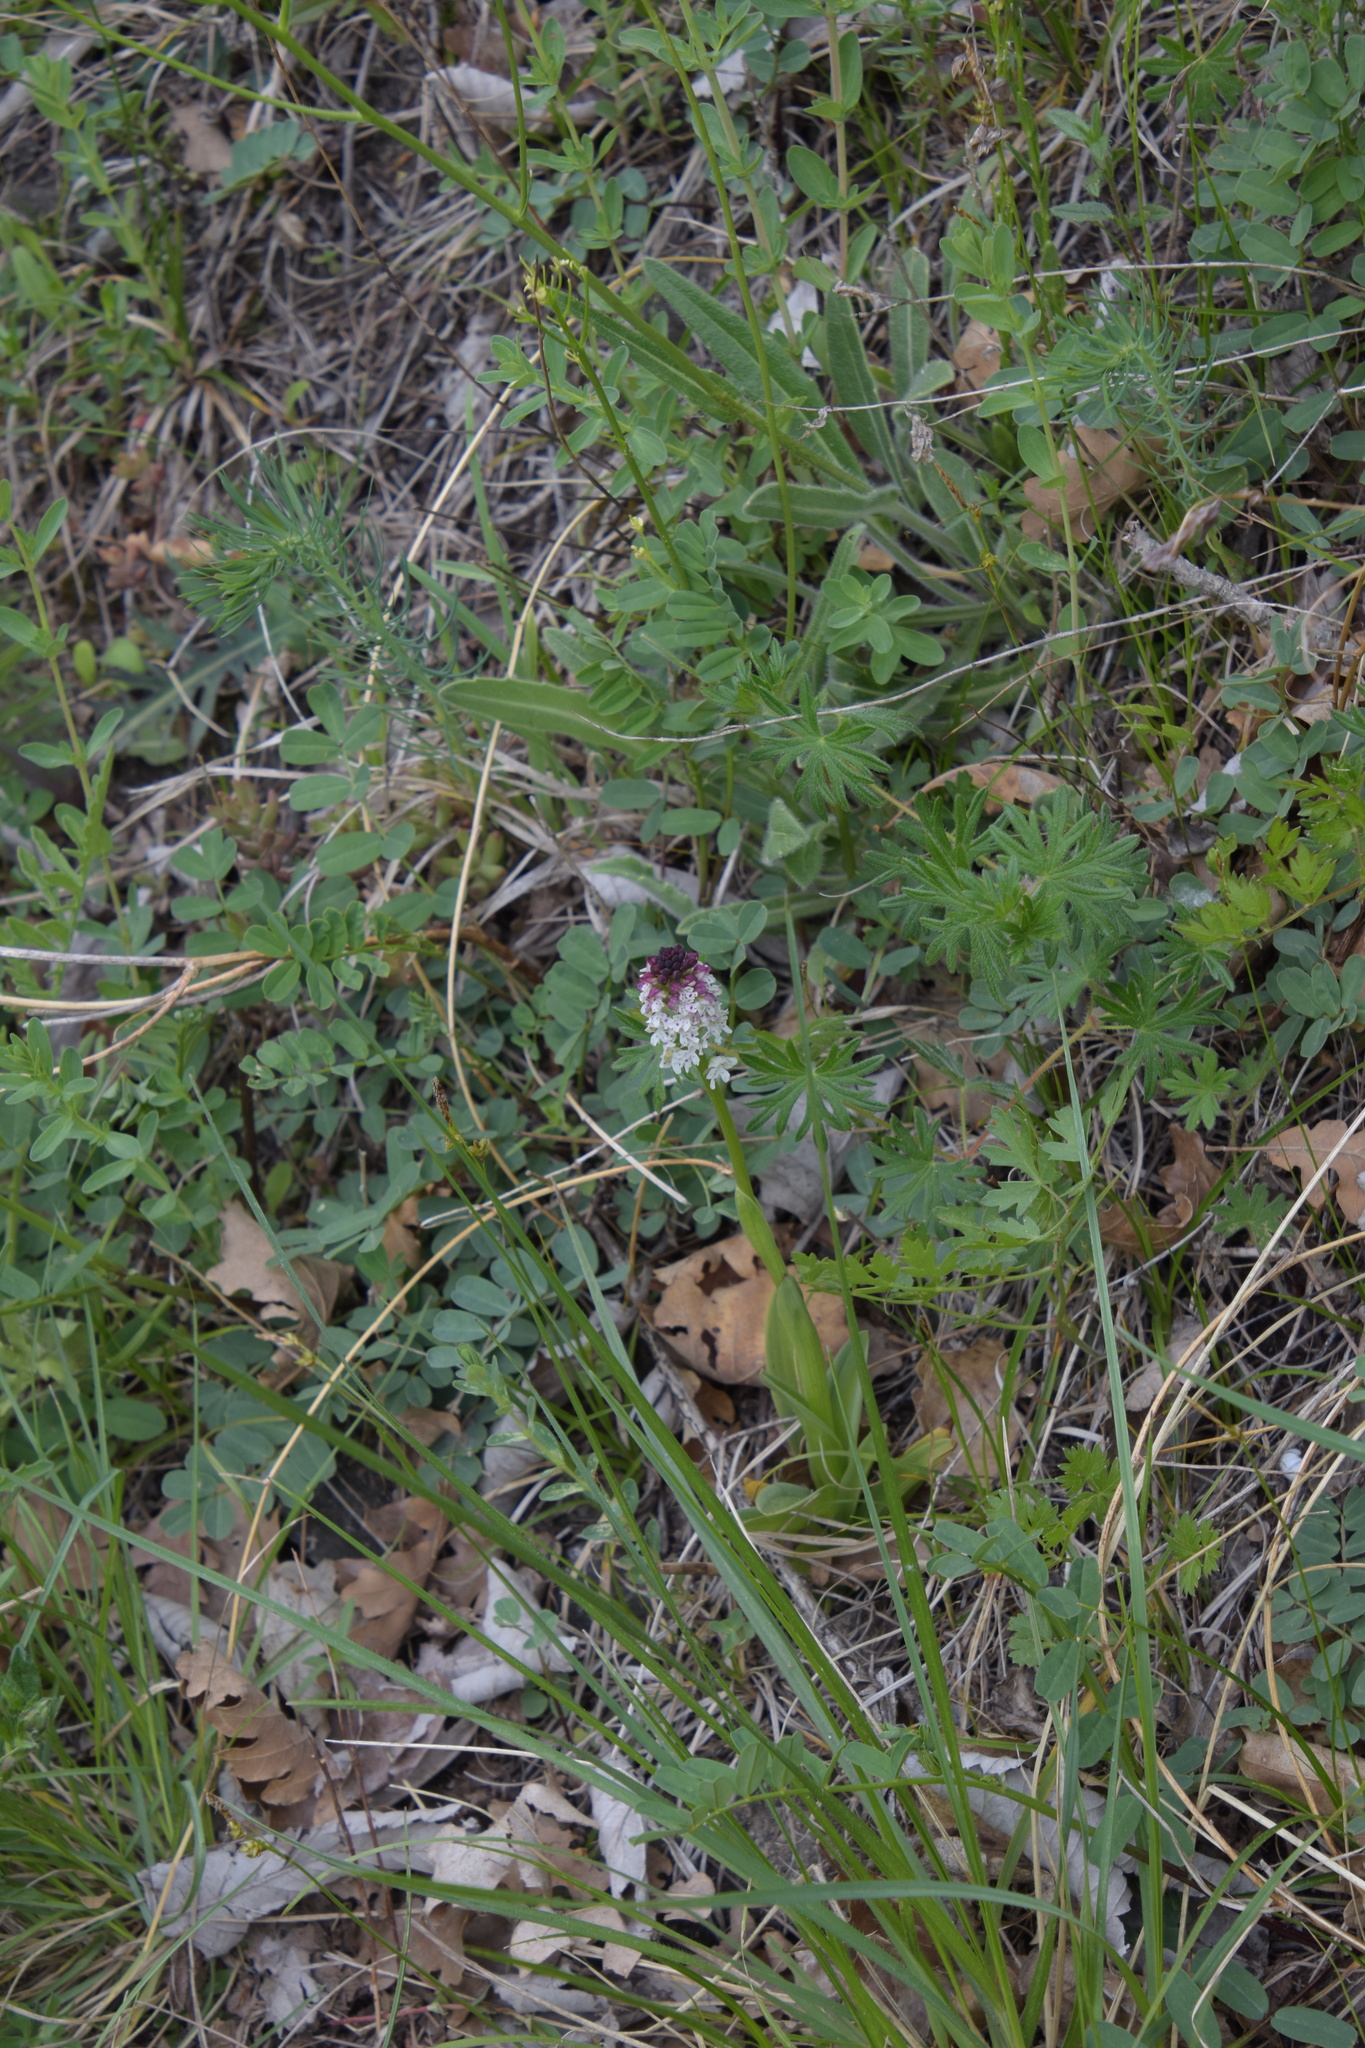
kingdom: Plantae
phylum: Tracheophyta
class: Liliopsida
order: Asparagales
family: Orchidaceae
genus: Neotinea
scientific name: Neotinea ustulata
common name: Burnt orchid
